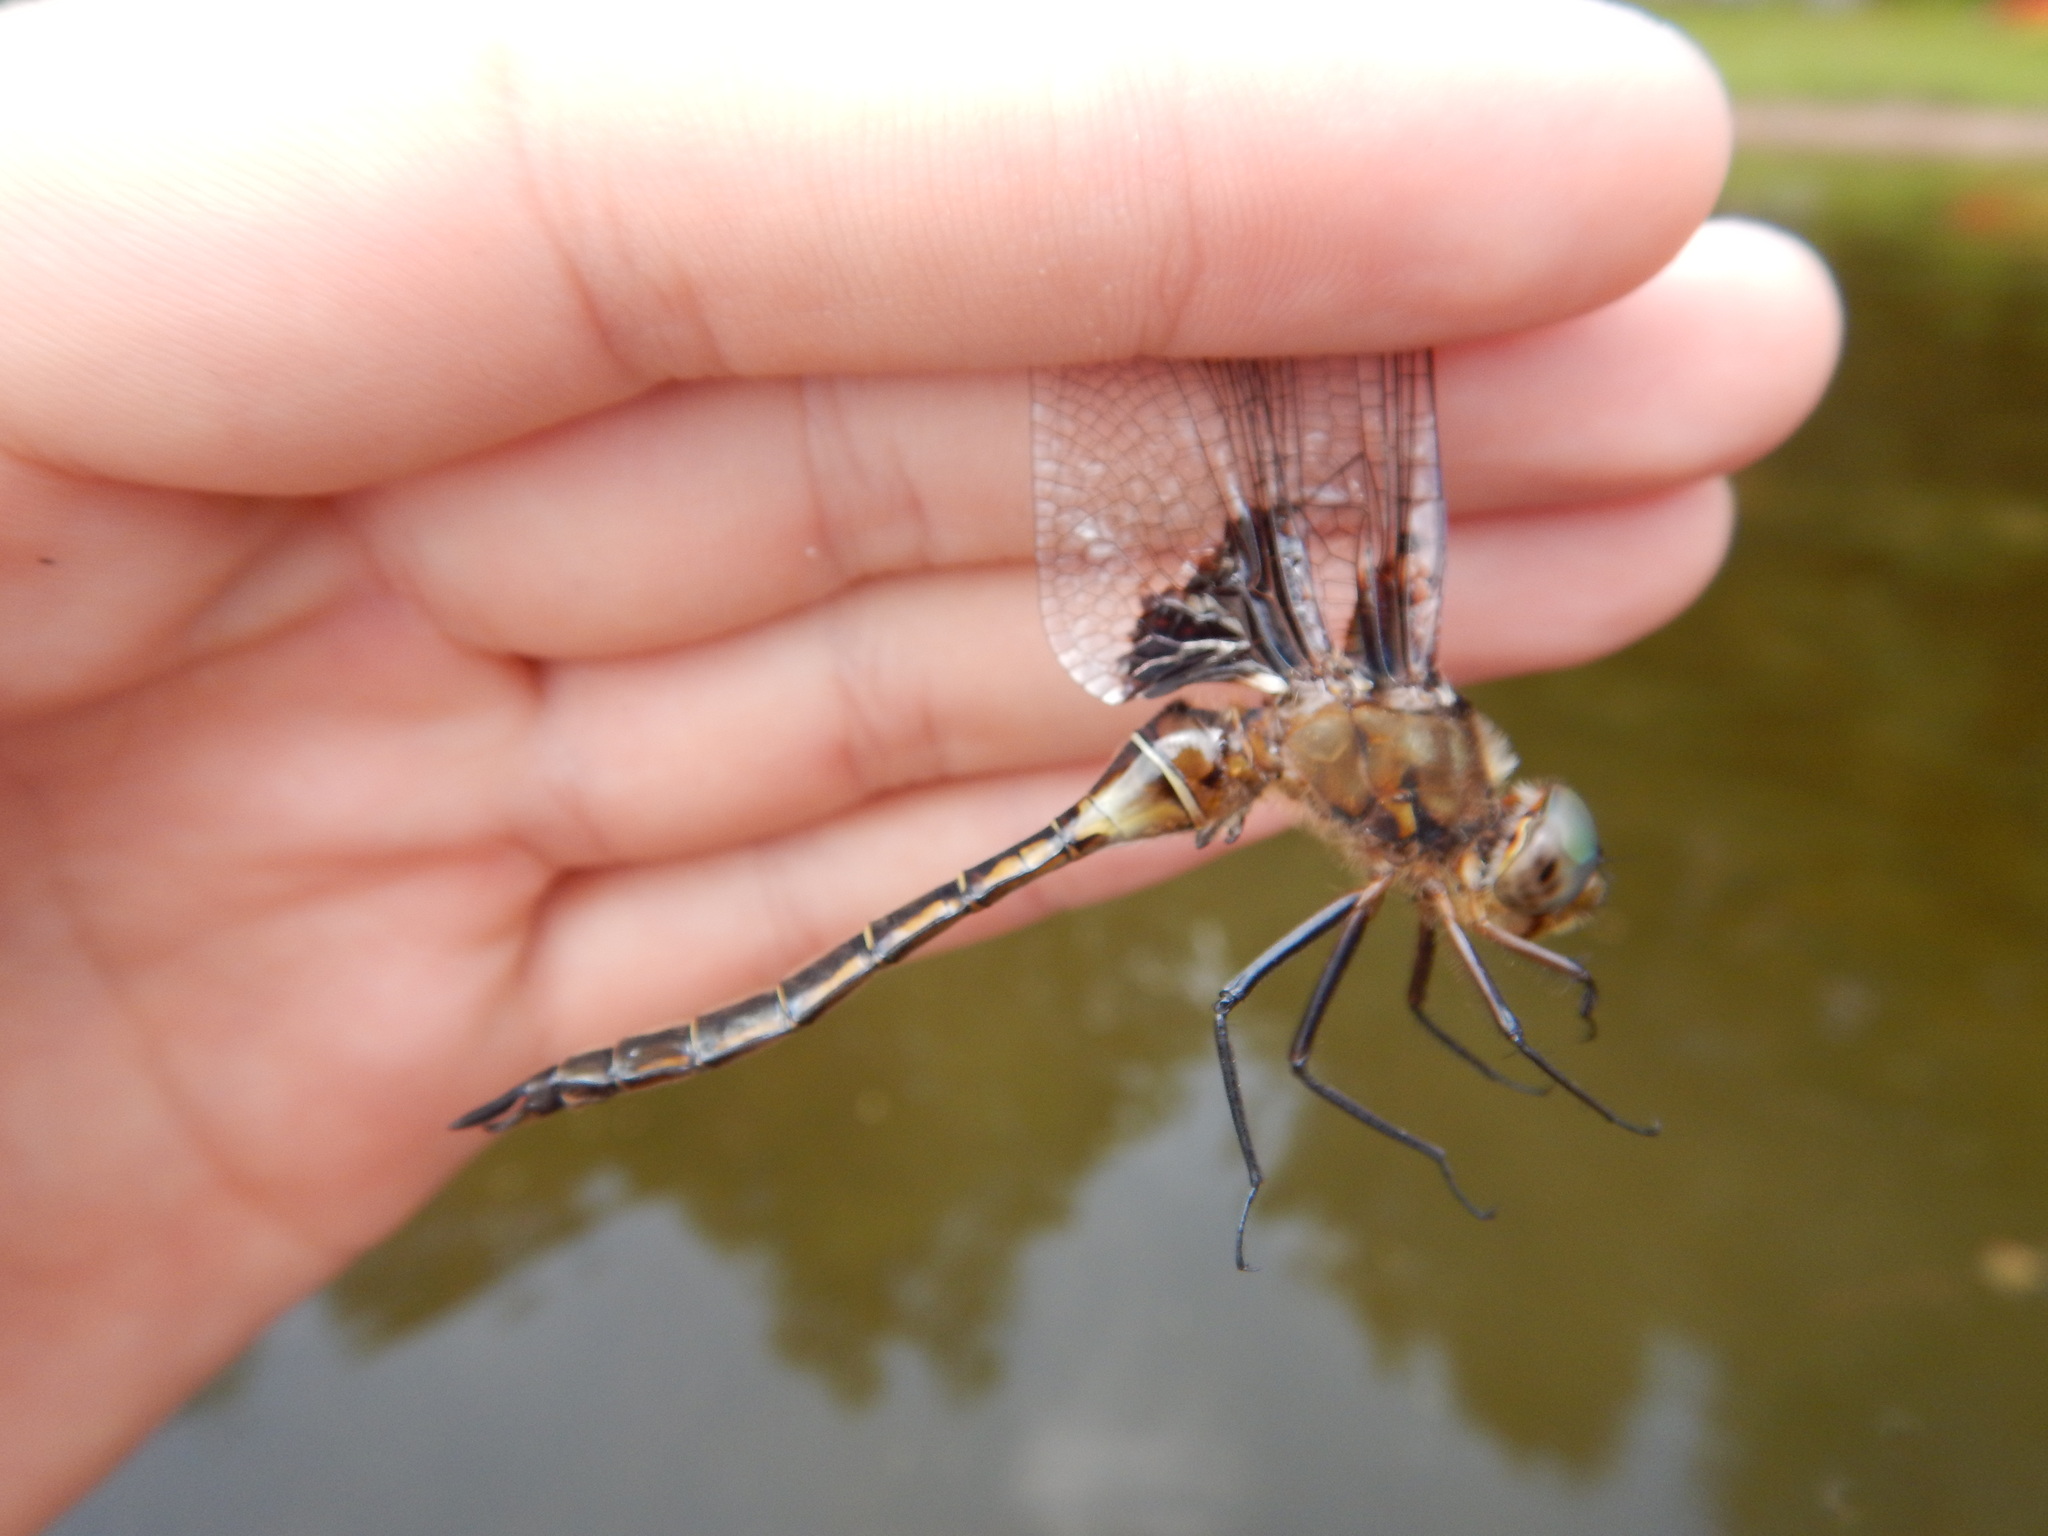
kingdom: Animalia
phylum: Arthropoda
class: Insecta
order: Odonata
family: Corduliidae
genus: Epitheca
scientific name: Epitheca princeps
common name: Prince baskettail
